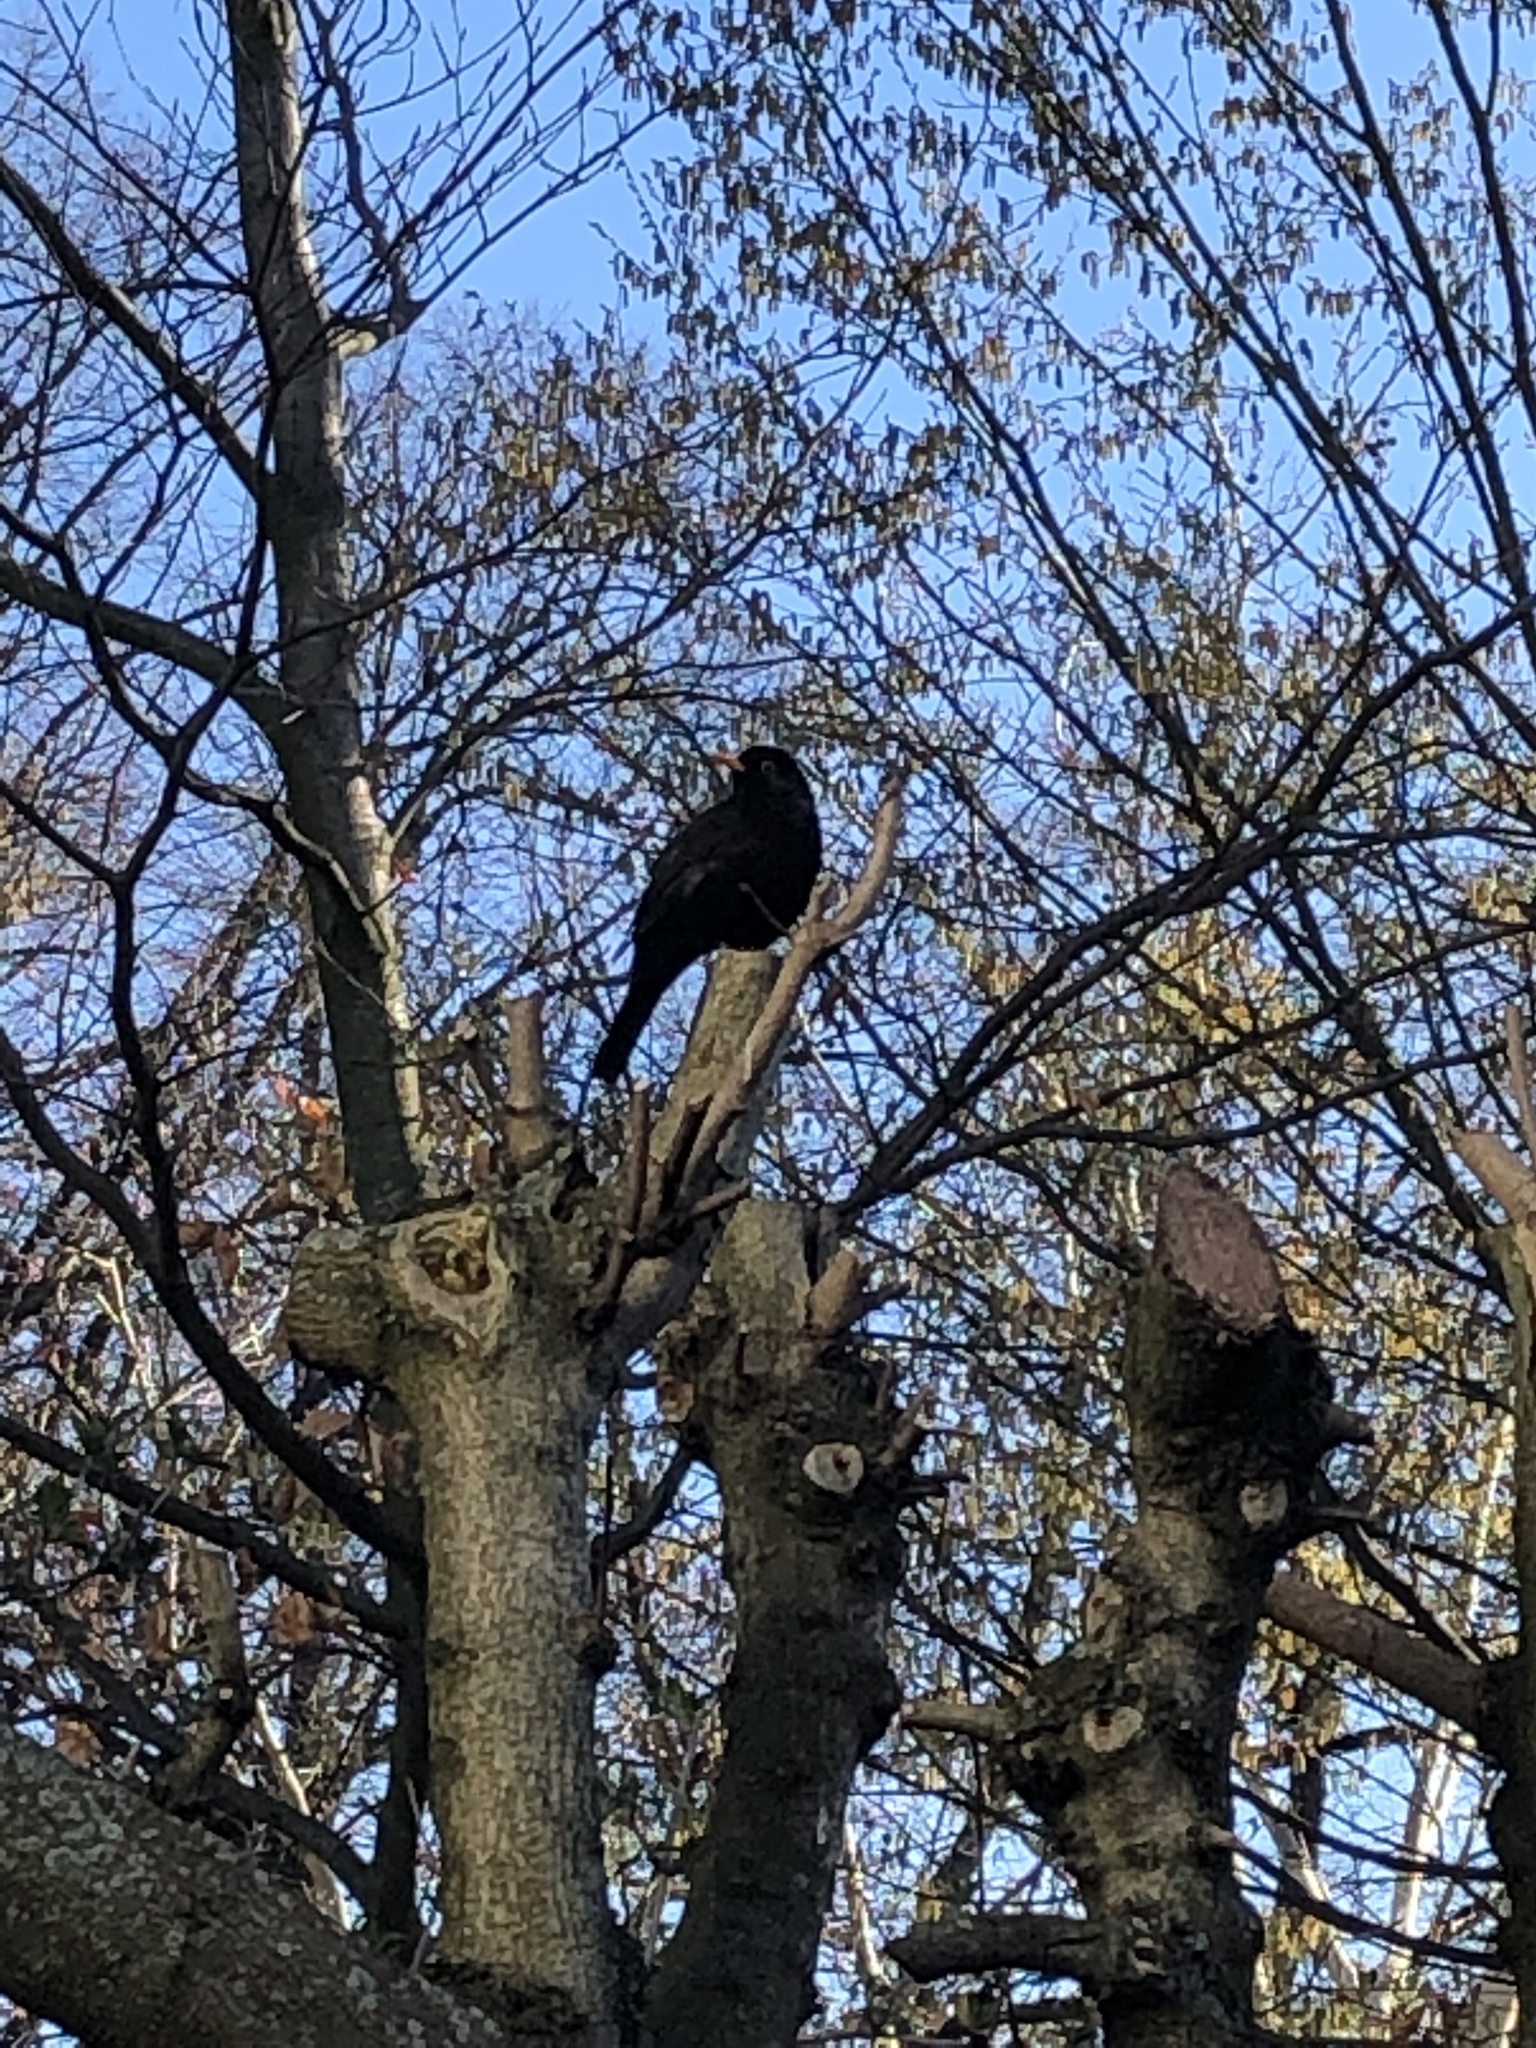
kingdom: Animalia
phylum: Chordata
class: Aves
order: Passeriformes
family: Turdidae
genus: Turdus
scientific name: Turdus merula
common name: Common blackbird
